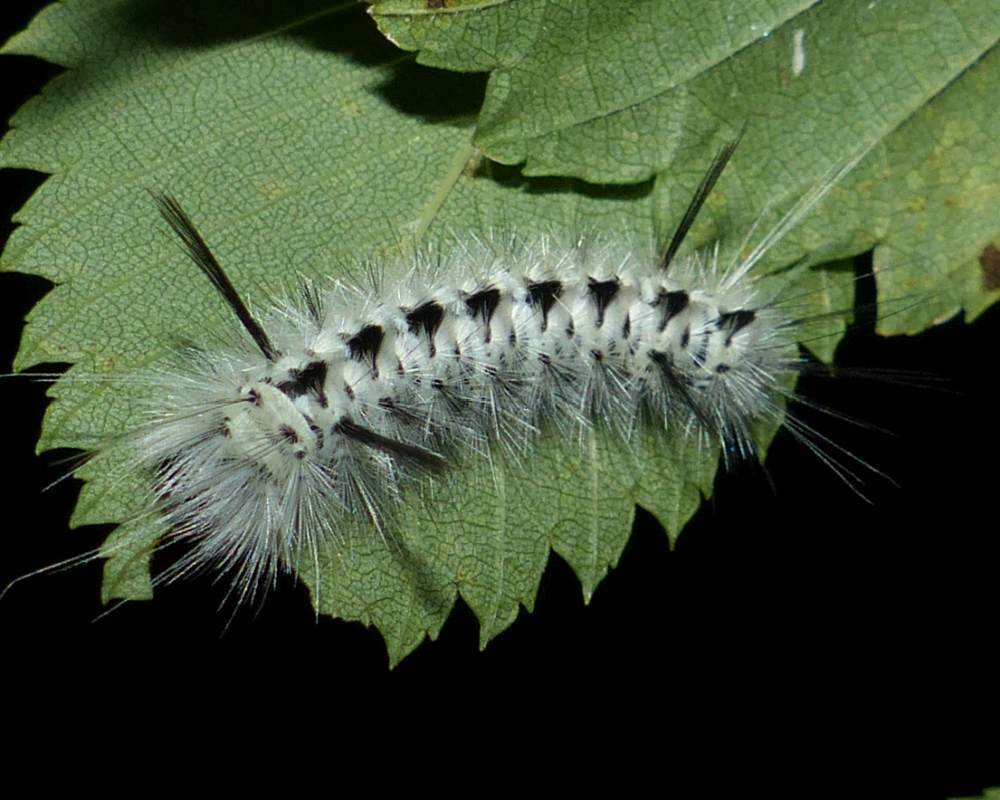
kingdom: Animalia
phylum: Arthropoda
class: Insecta
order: Lepidoptera
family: Erebidae
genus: Lophocampa
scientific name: Lophocampa caryae
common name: Hickory tussock moth
